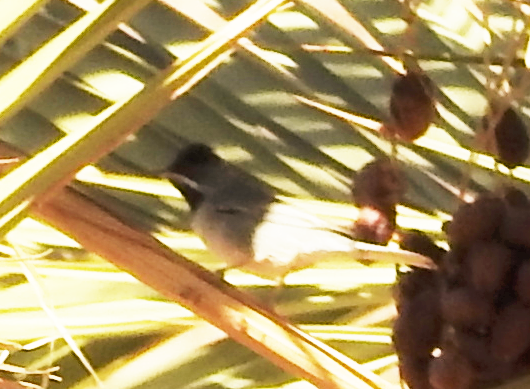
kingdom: Animalia
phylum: Chordata
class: Aves
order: Passeriformes
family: Sylviidae
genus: Sylvia
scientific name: Sylvia ruppeli
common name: Rüppell's warbler
